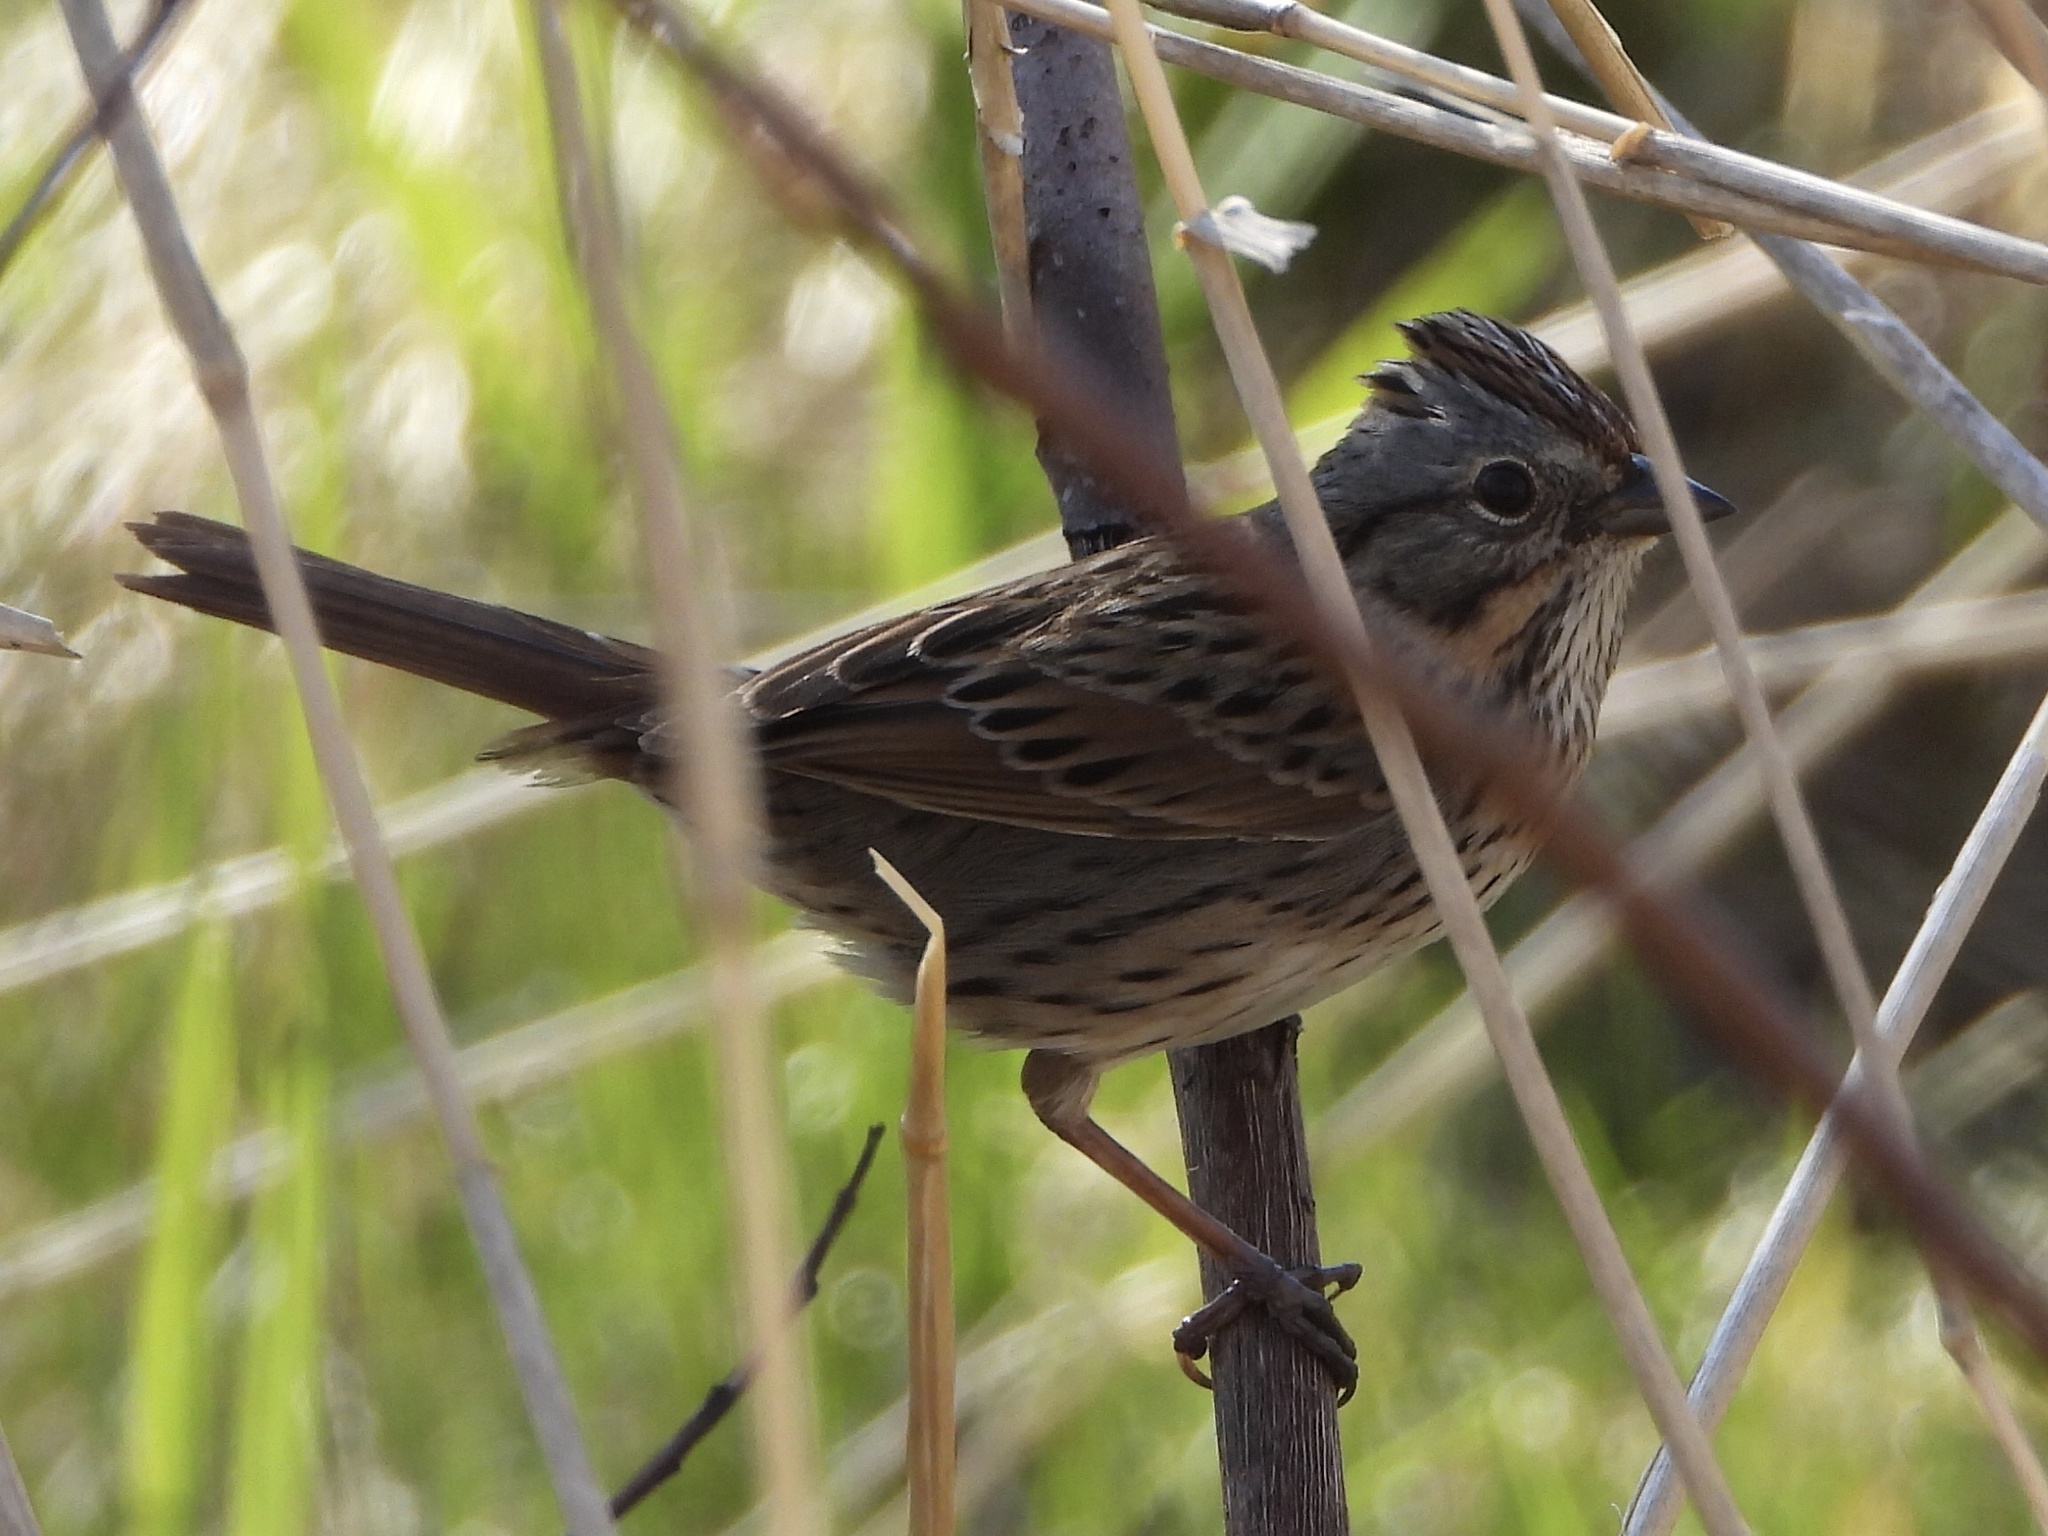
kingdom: Animalia
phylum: Chordata
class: Aves
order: Passeriformes
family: Passerellidae
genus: Melospiza
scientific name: Melospiza lincolnii
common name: Lincoln's sparrow
